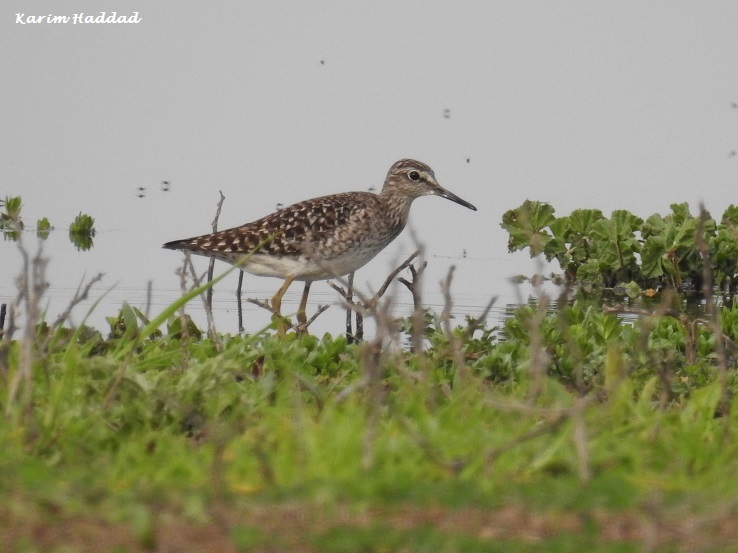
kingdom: Animalia
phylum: Chordata
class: Aves
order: Charadriiformes
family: Scolopacidae
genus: Tringa
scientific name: Tringa glareola
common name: Wood sandpiper
